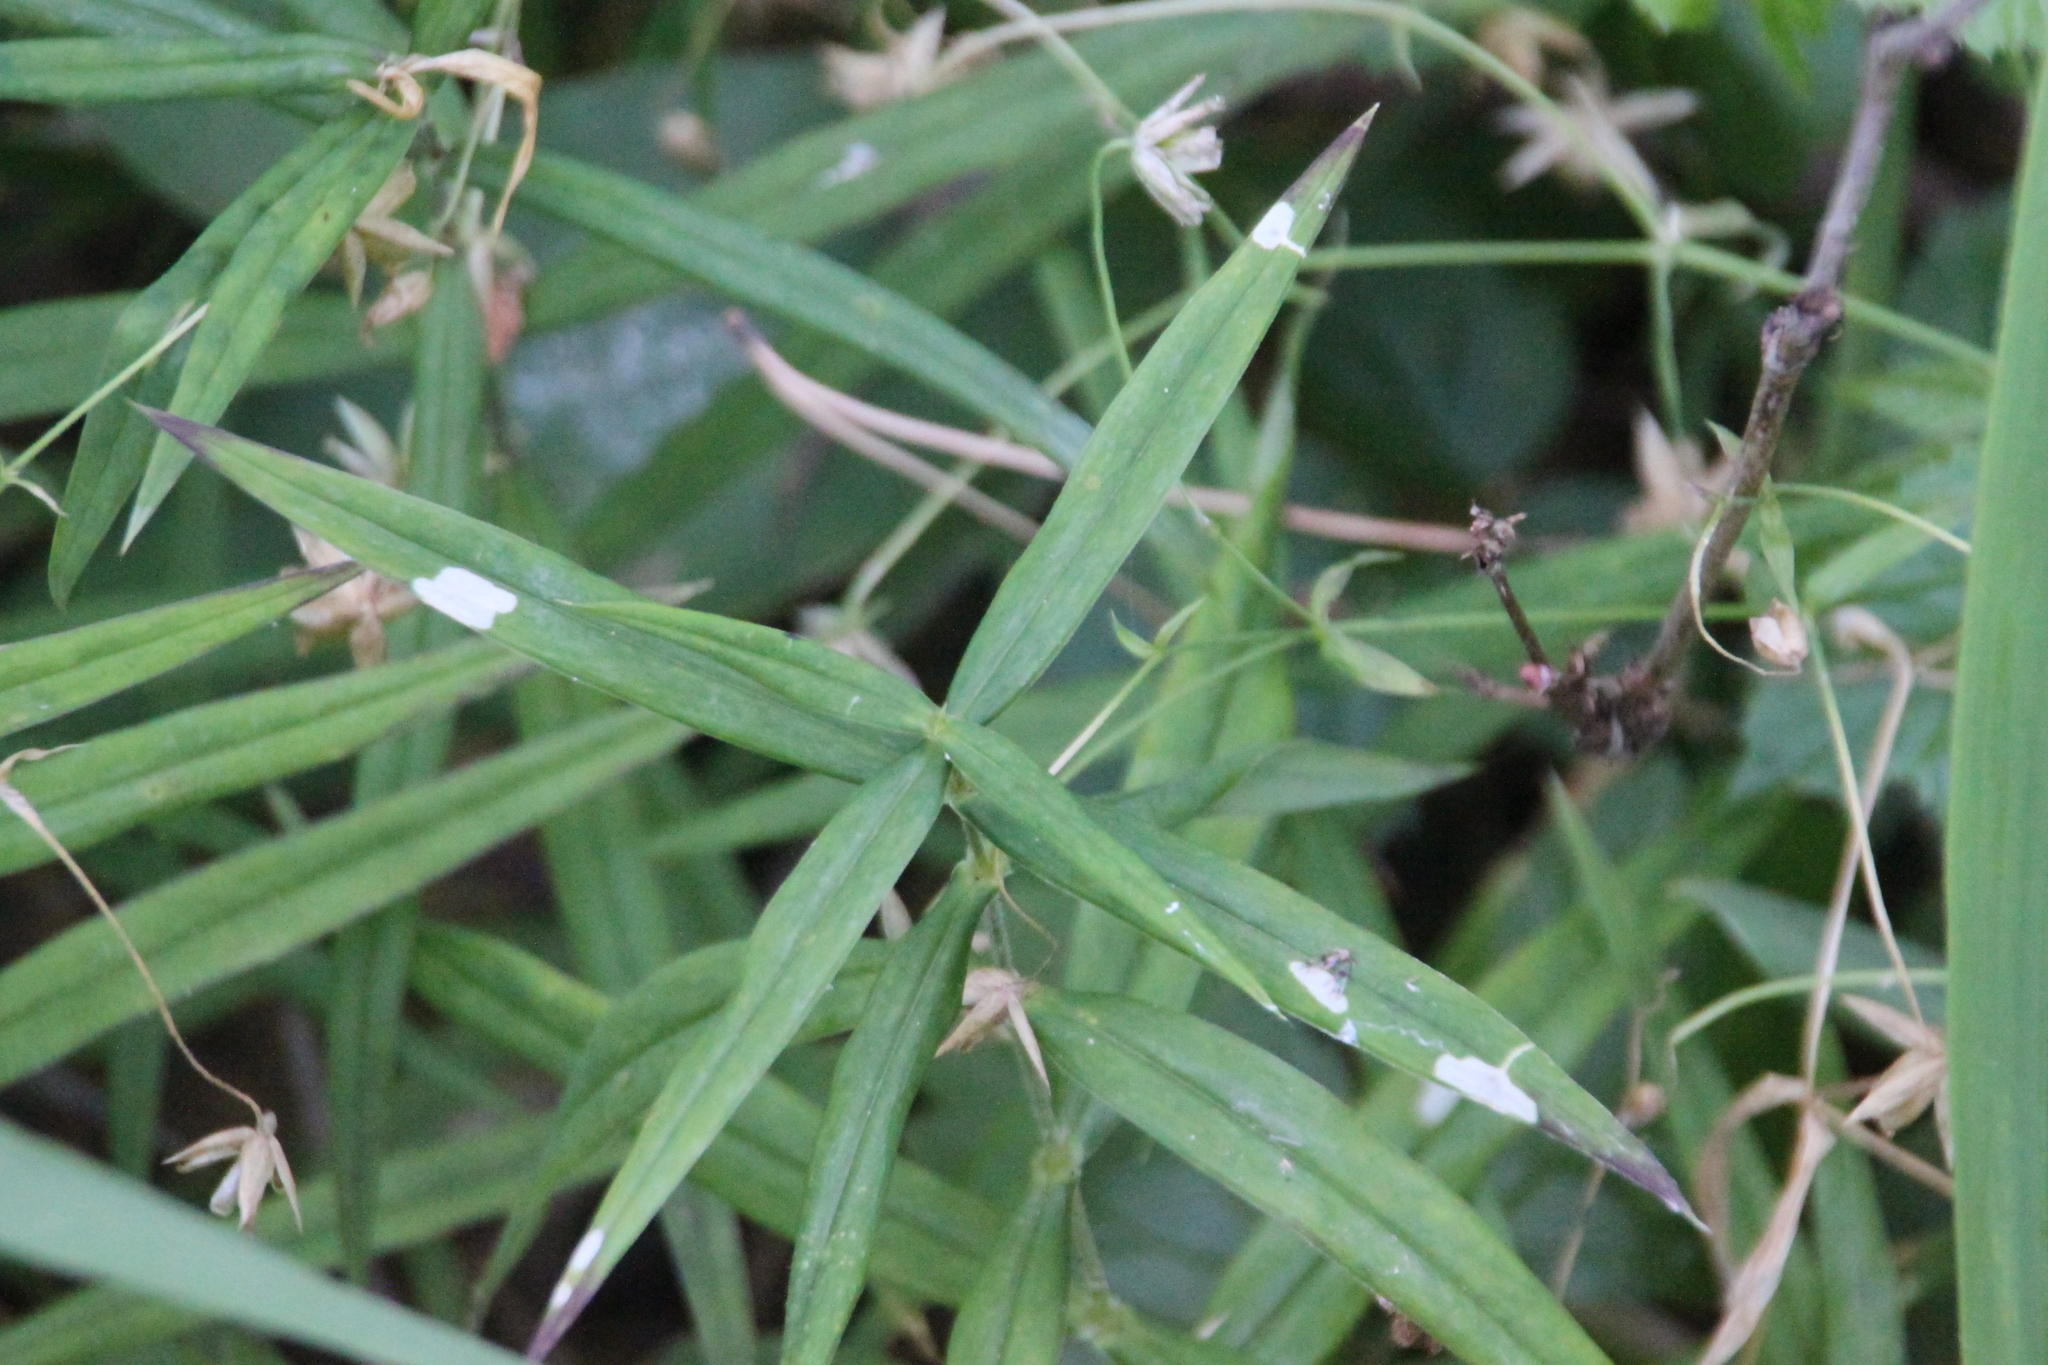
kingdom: Plantae
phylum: Tracheophyta
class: Magnoliopsida
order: Caryophyllales
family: Caryophyllaceae
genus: Rabelera
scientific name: Rabelera holostea
